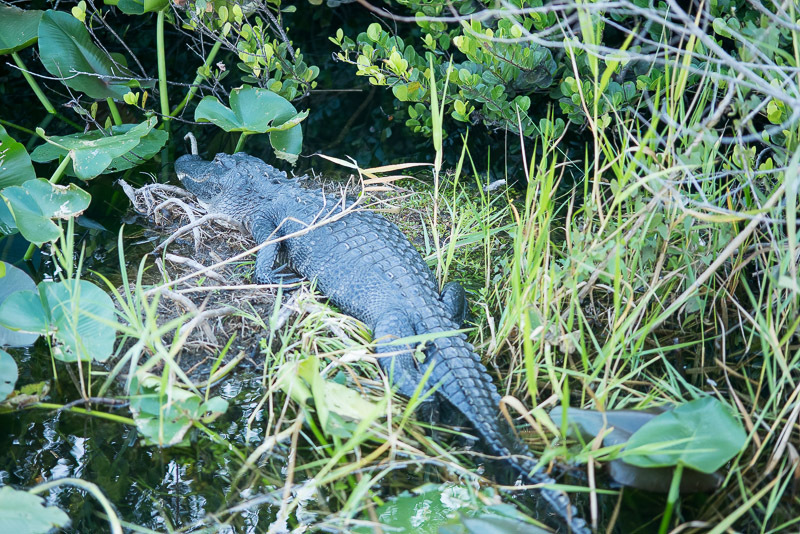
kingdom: Animalia
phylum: Chordata
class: Crocodylia
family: Alligatoridae
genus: Alligator
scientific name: Alligator mississippiensis
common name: American alligator
